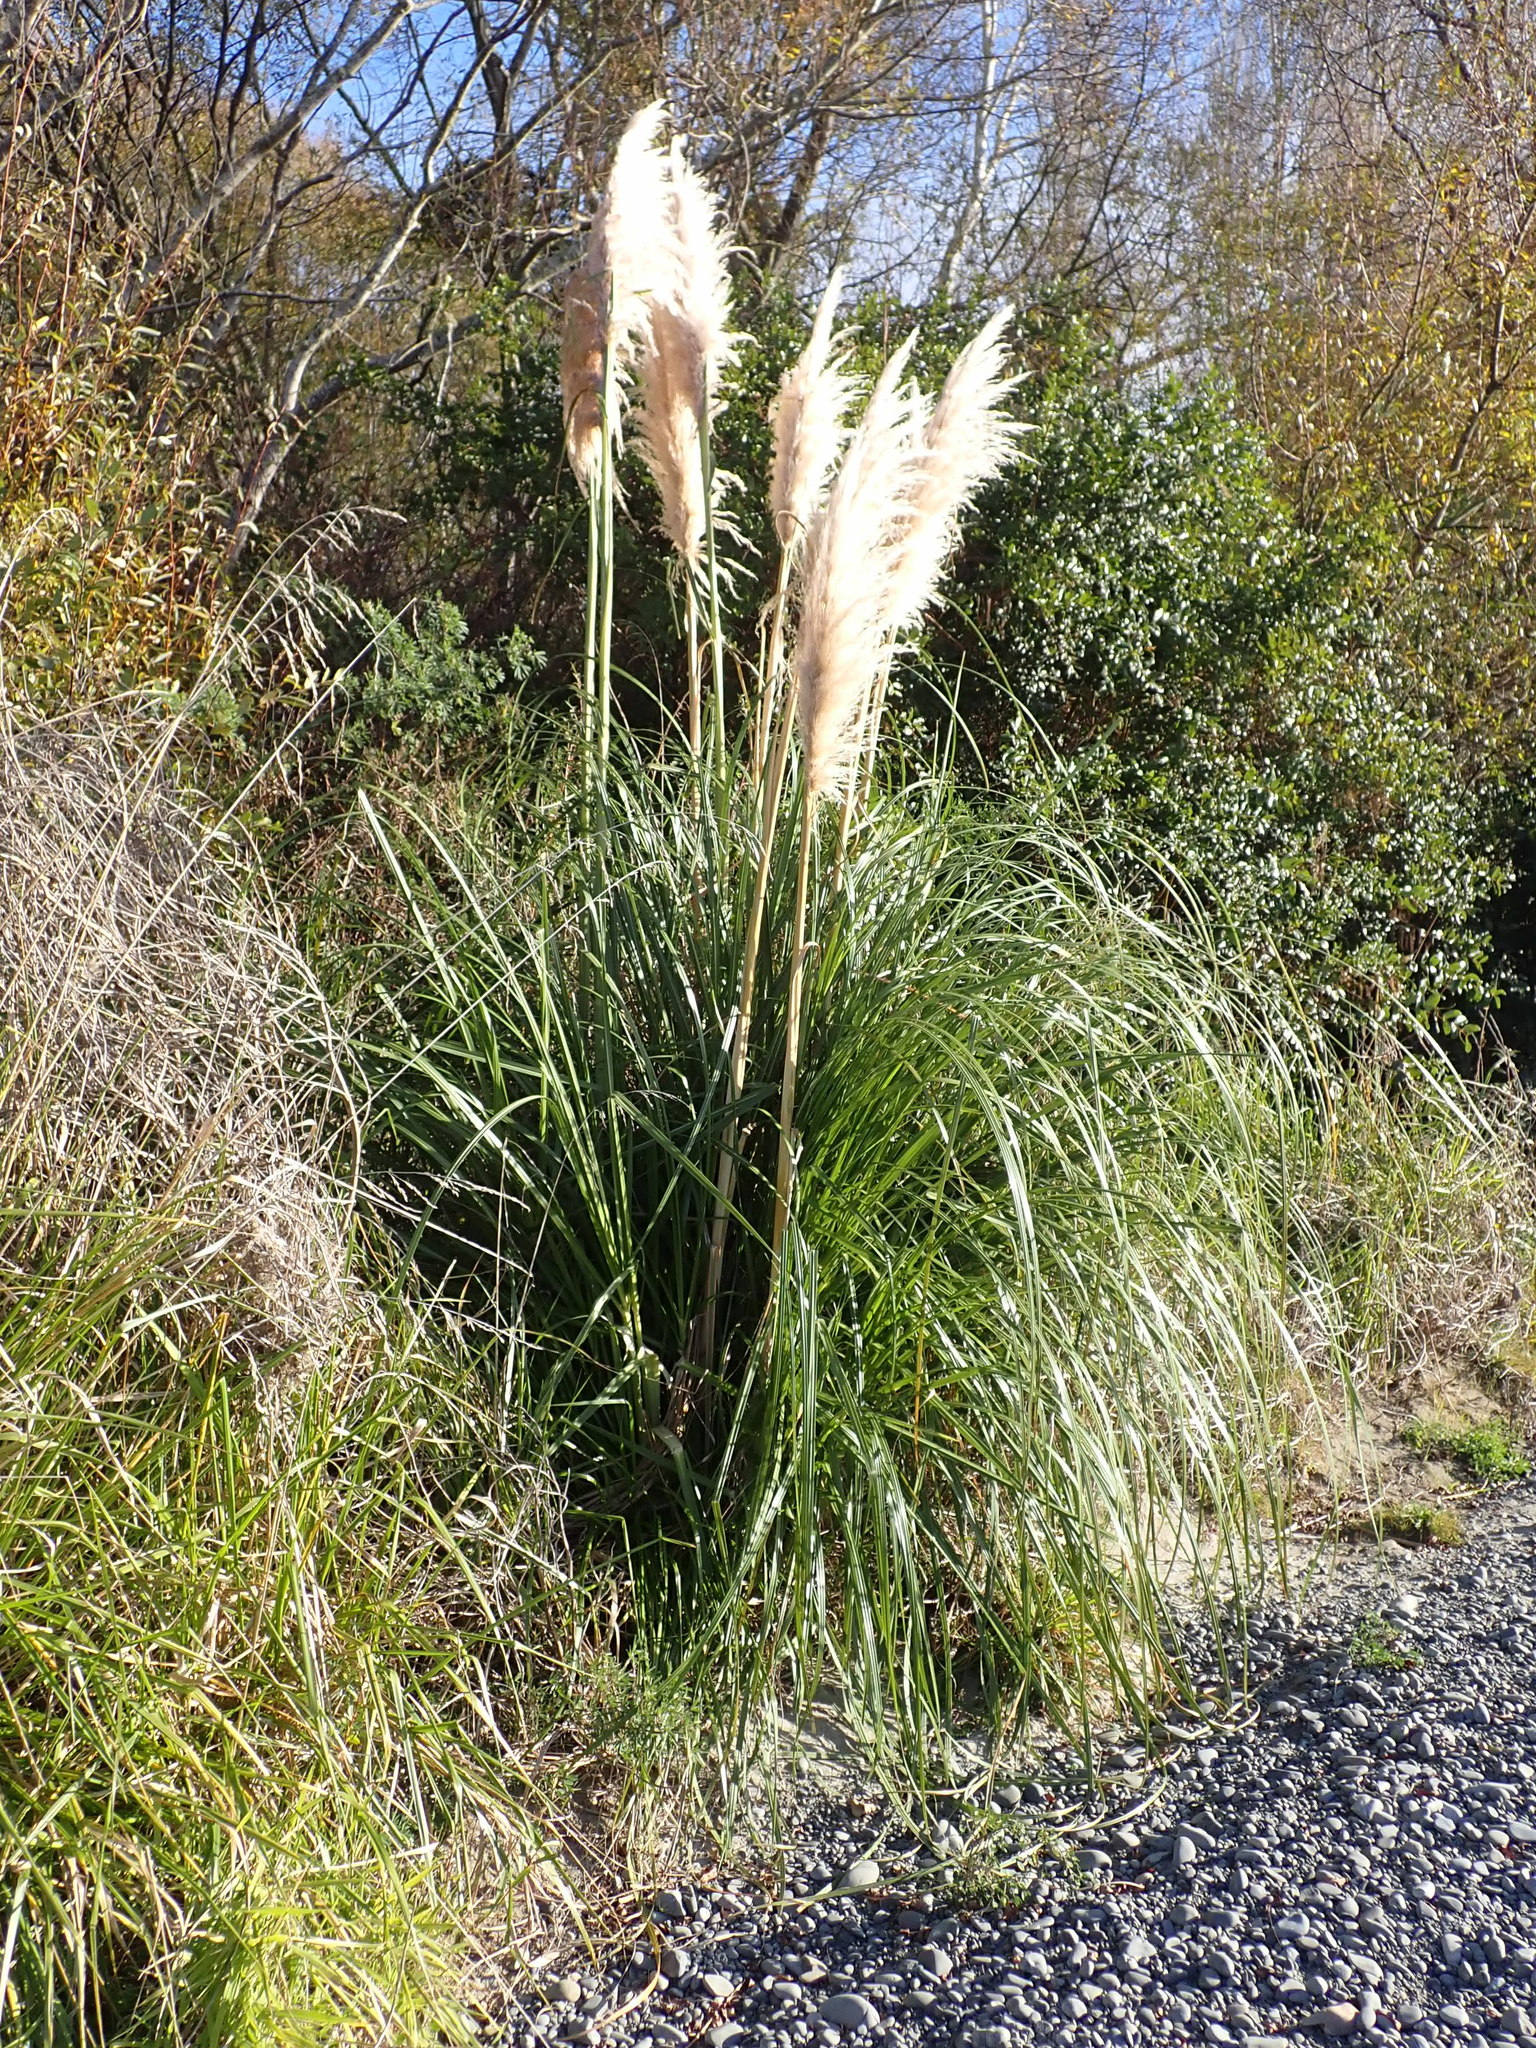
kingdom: Plantae
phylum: Tracheophyta
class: Liliopsida
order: Poales
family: Poaceae
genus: Cortaderia
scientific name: Cortaderia selloana
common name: Uruguayan pampas grass
